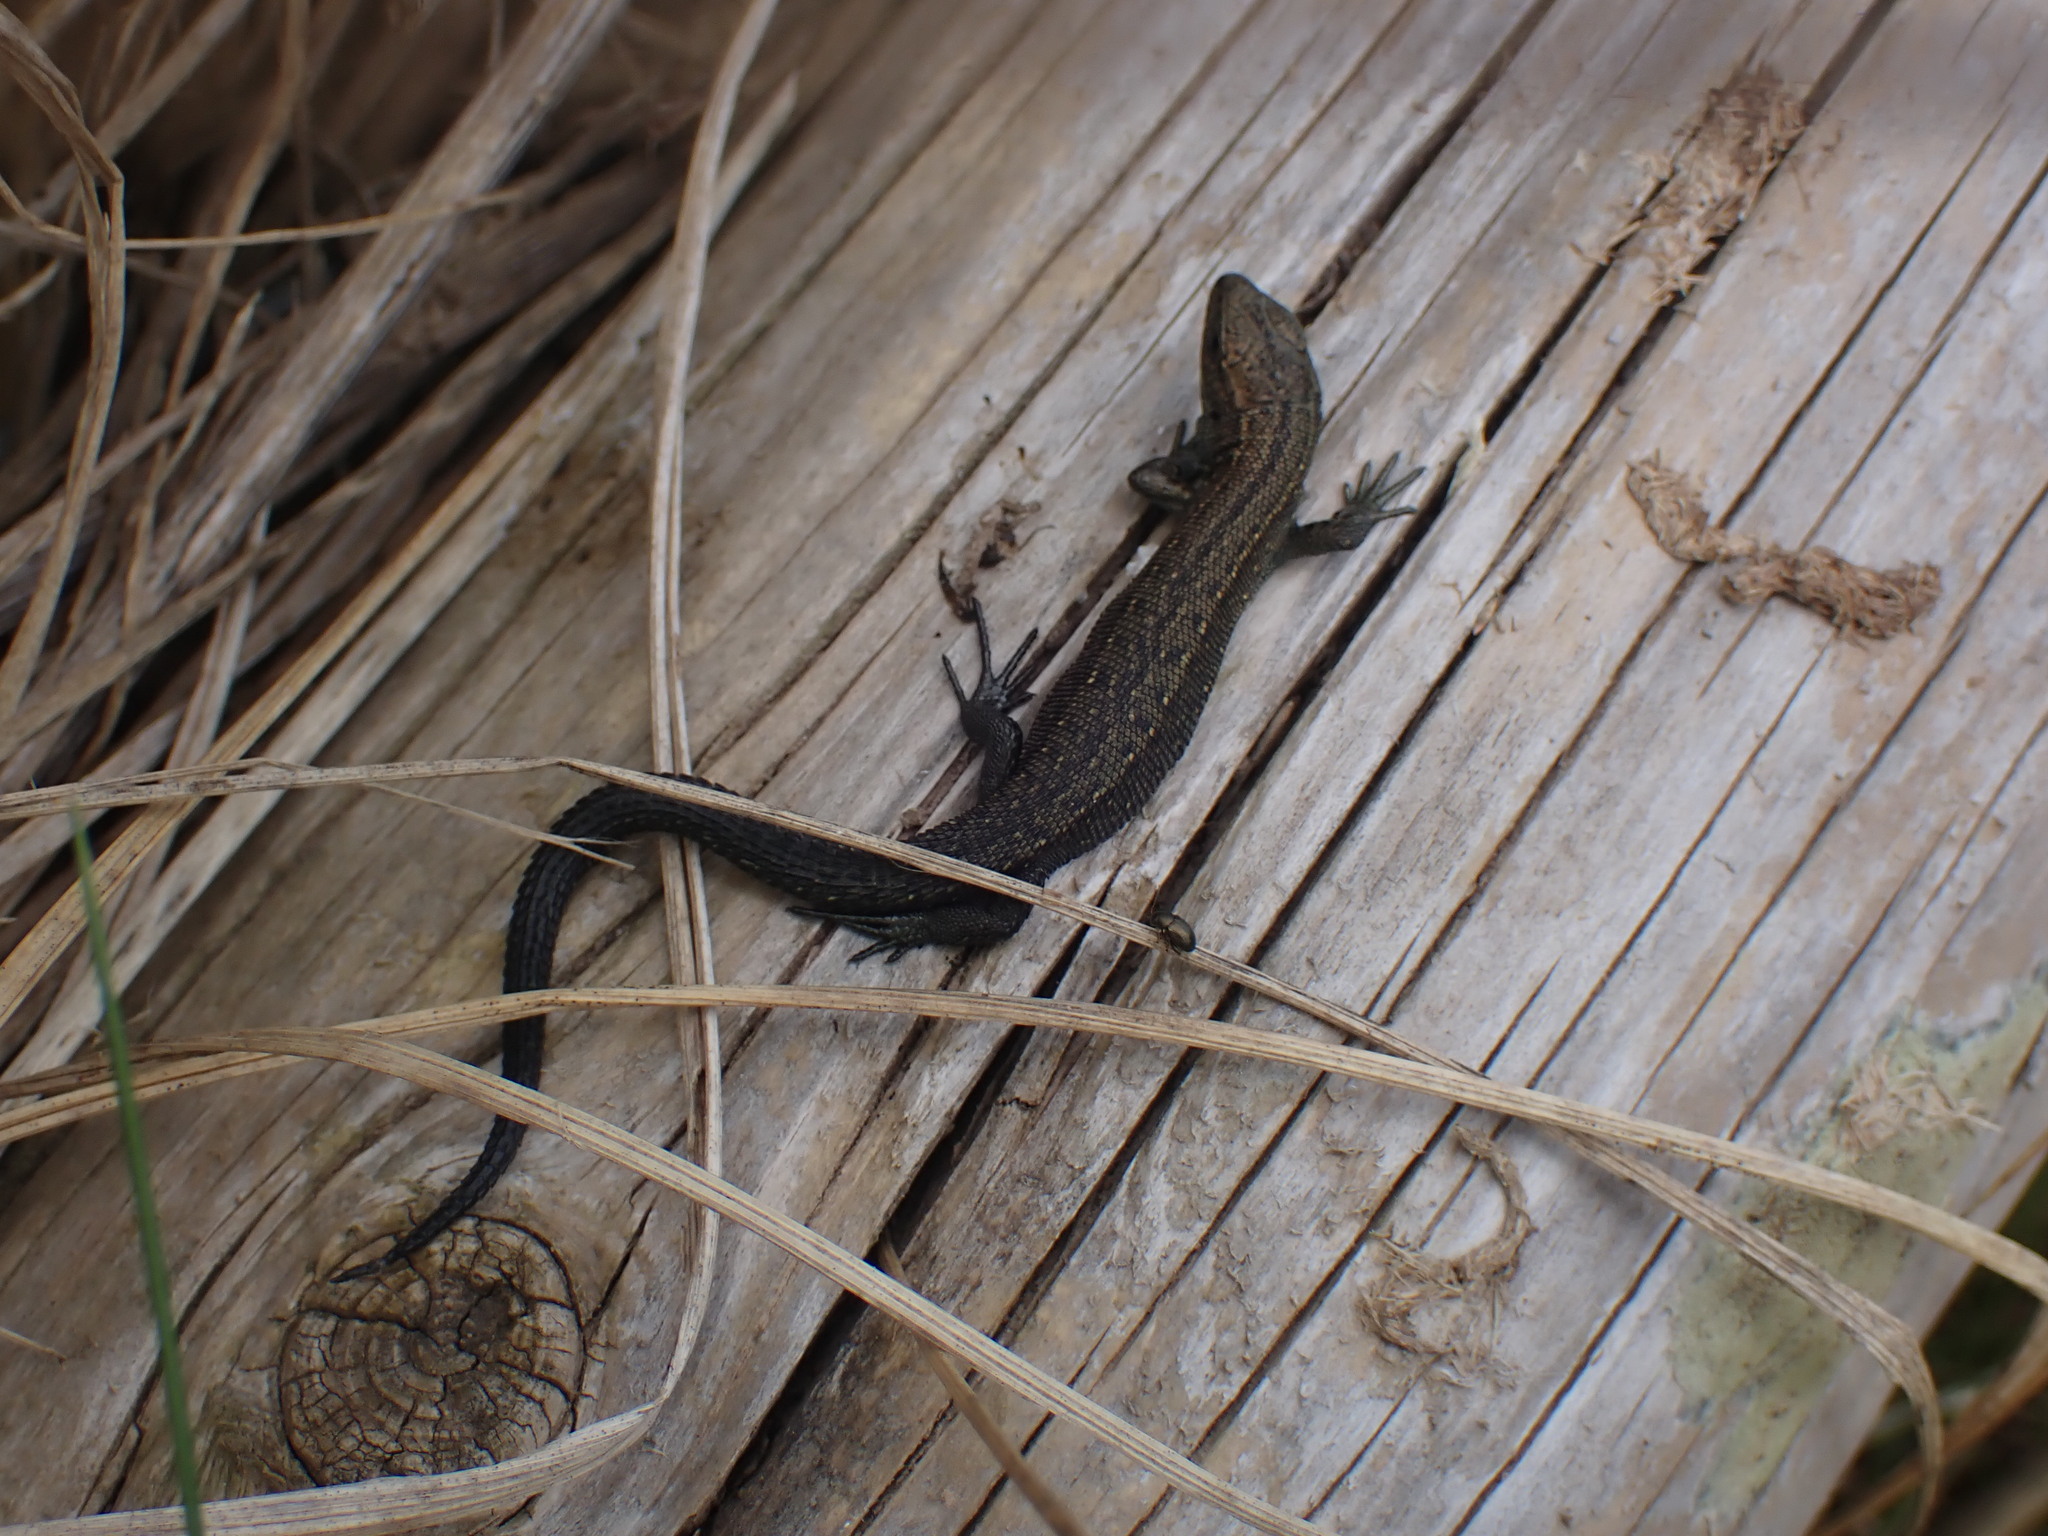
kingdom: Animalia
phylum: Chordata
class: Squamata
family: Lacertidae
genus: Zootoca
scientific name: Zootoca vivipara
